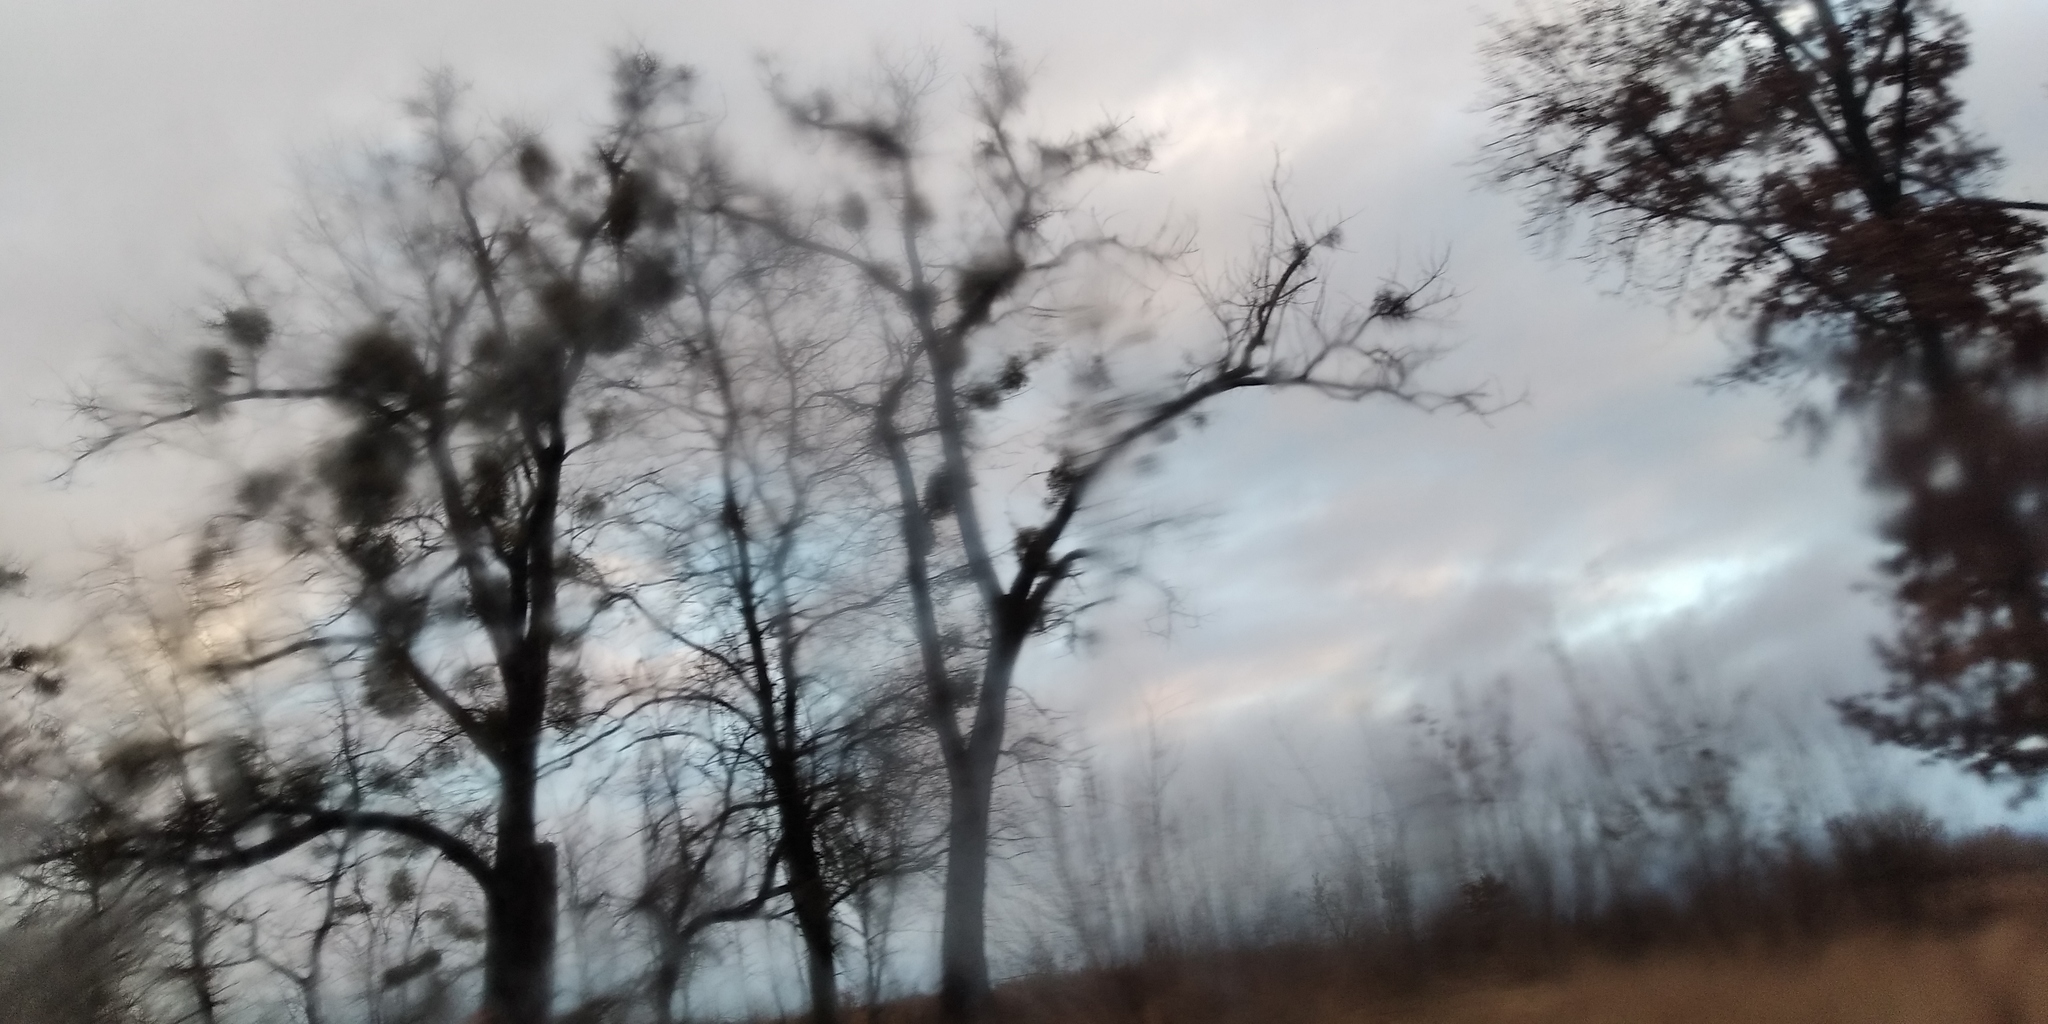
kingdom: Plantae
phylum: Tracheophyta
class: Magnoliopsida
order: Santalales
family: Viscaceae
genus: Viscum
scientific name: Viscum album
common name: Mistletoe
